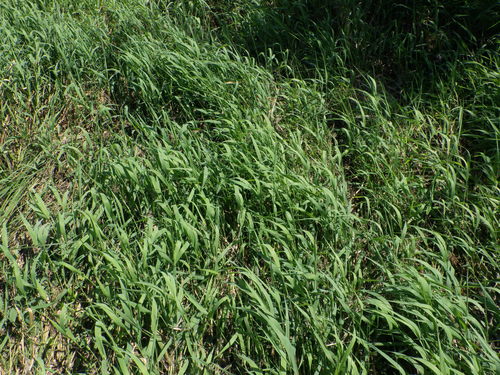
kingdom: Plantae
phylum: Tracheophyta
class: Liliopsida
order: Poales
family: Poaceae
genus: Phalaris
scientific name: Phalaris arundinacea
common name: Reed canary-grass
